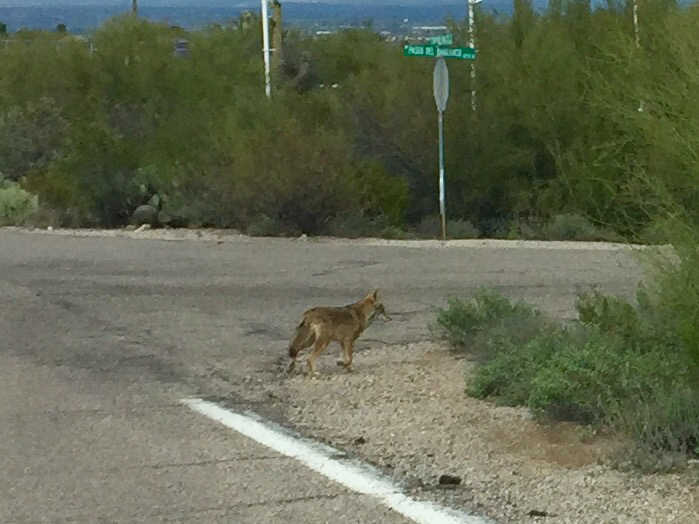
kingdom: Animalia
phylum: Chordata
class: Mammalia
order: Carnivora
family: Canidae
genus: Canis
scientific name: Canis latrans
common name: Coyote
